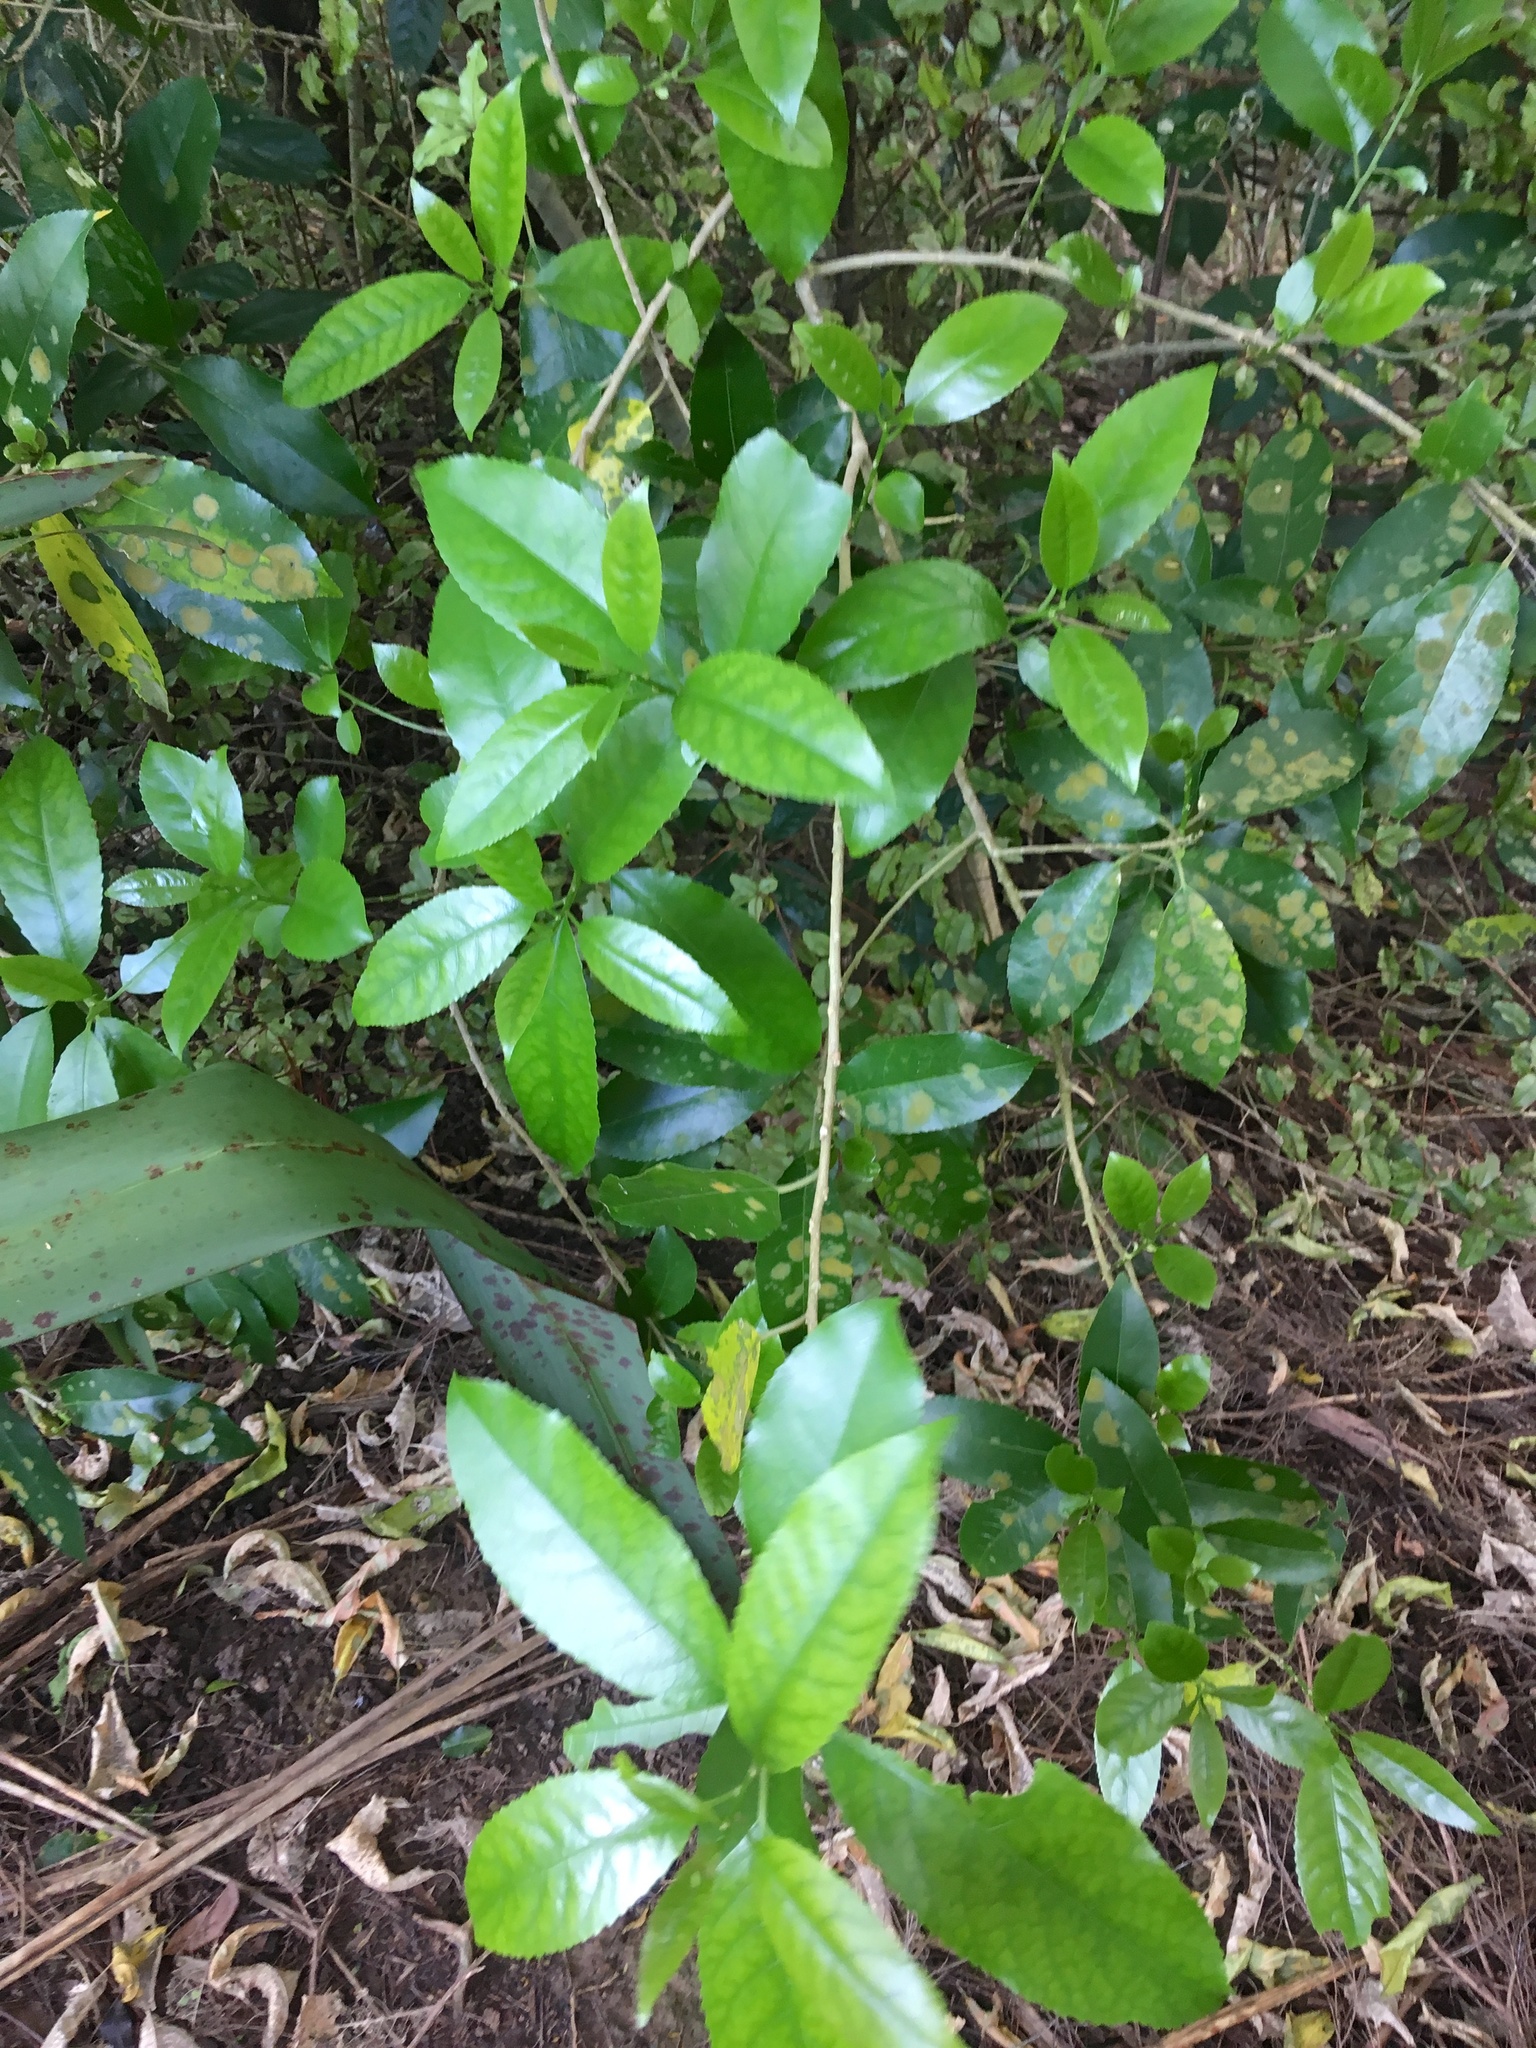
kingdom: Plantae
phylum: Tracheophyta
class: Magnoliopsida
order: Malpighiales
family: Violaceae
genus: Melicytus
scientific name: Melicytus ramiflorus
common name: Mahoe
